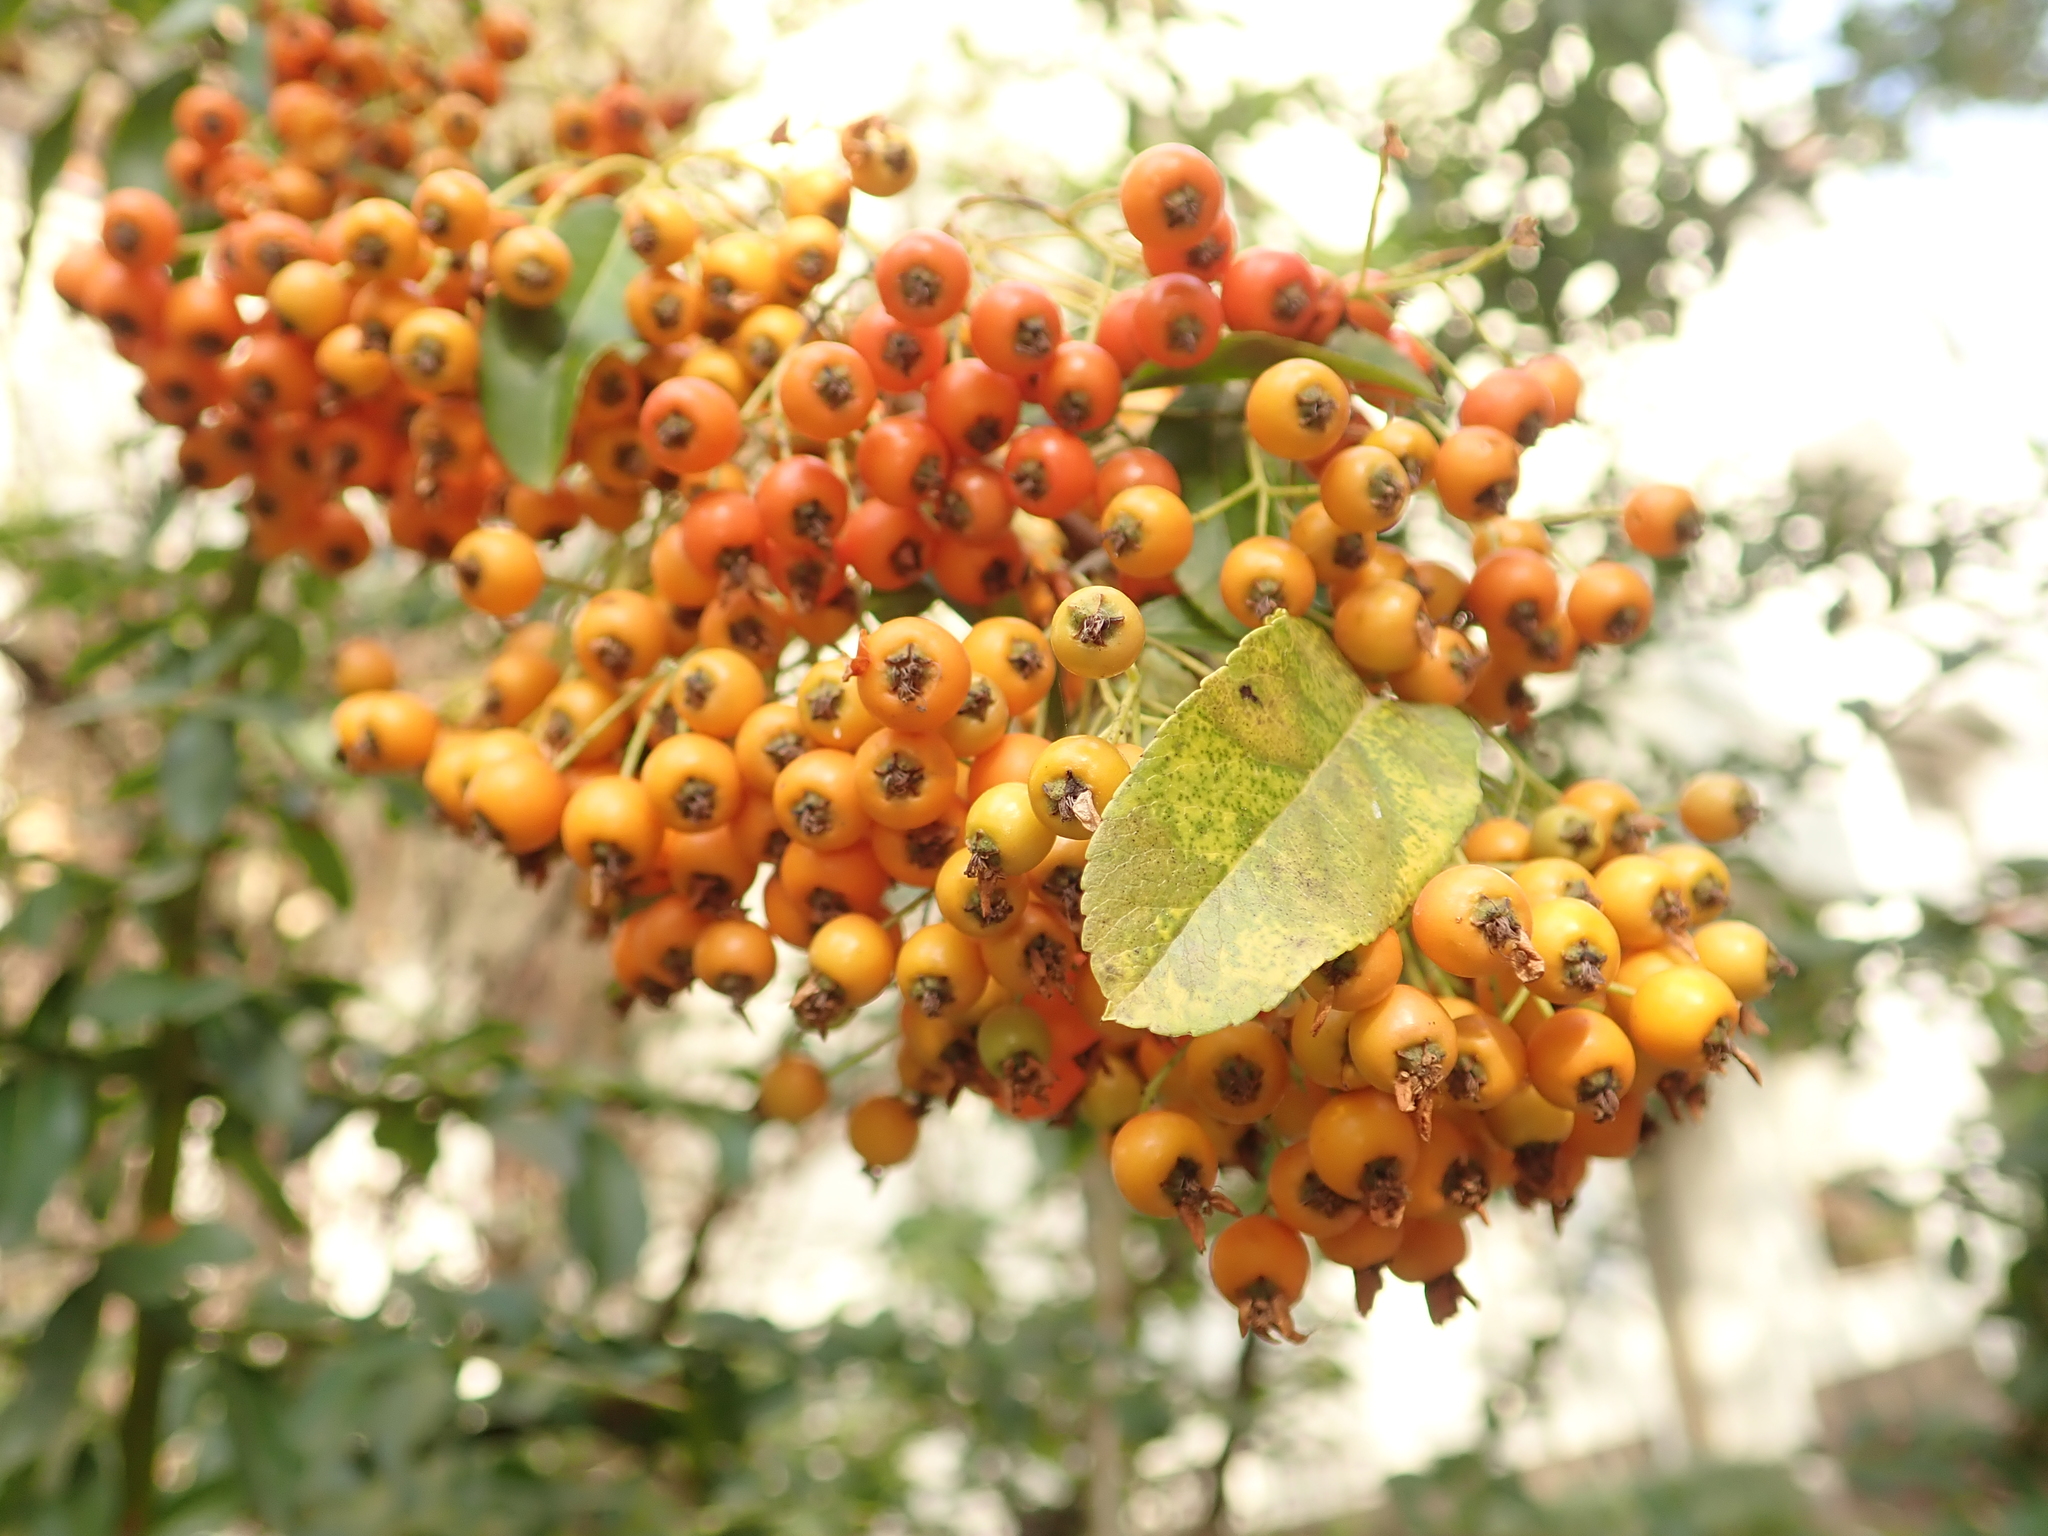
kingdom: Plantae
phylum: Tracheophyta
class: Magnoliopsida
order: Rosales
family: Rosaceae
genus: Pyracantha
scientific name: Pyracantha coccinea
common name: Firethorn
